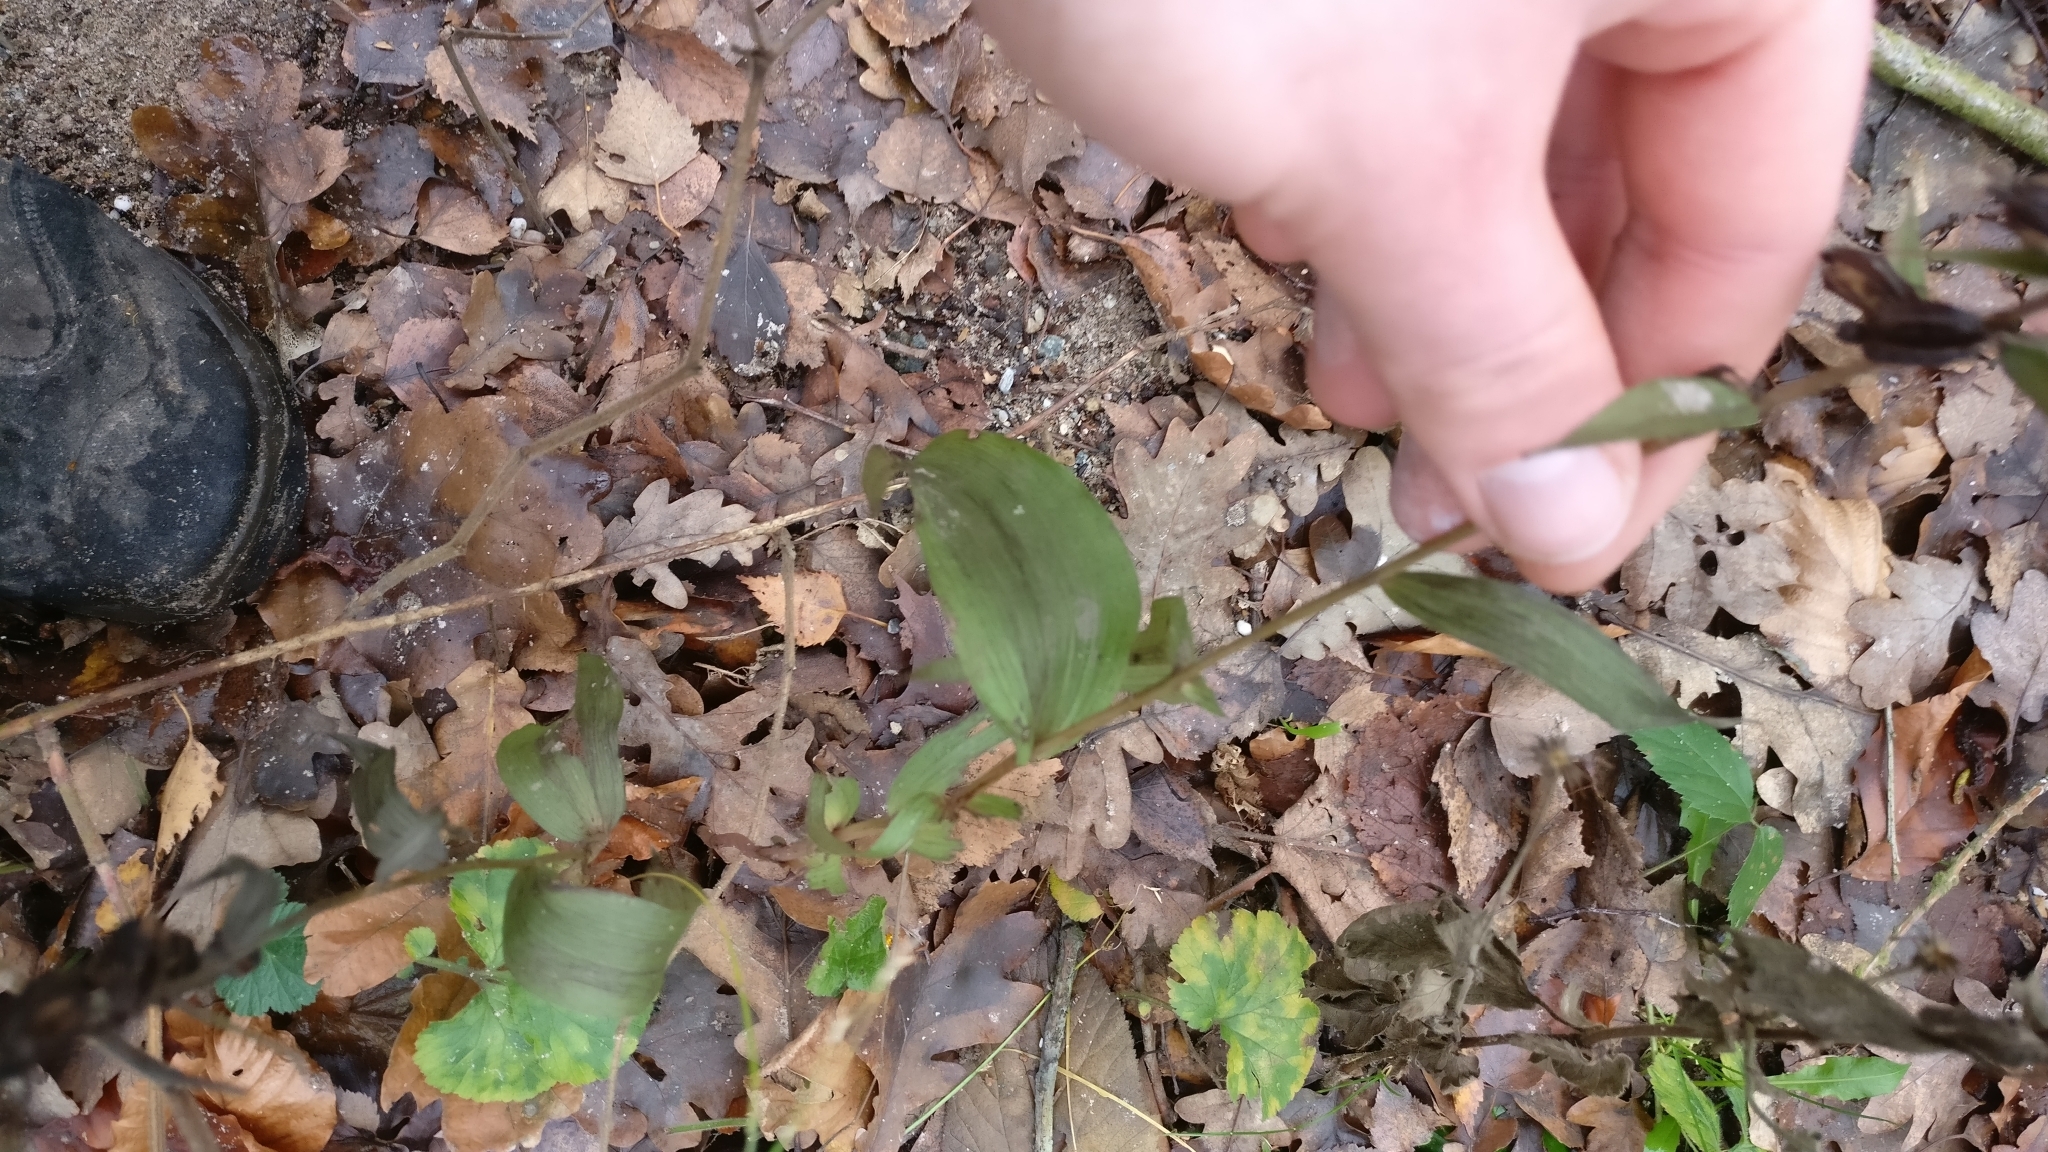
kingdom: Plantae
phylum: Tracheophyta
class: Liliopsida
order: Asparagales
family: Orchidaceae
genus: Epipactis
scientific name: Epipactis helleborine
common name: Broad-leaved helleborine
